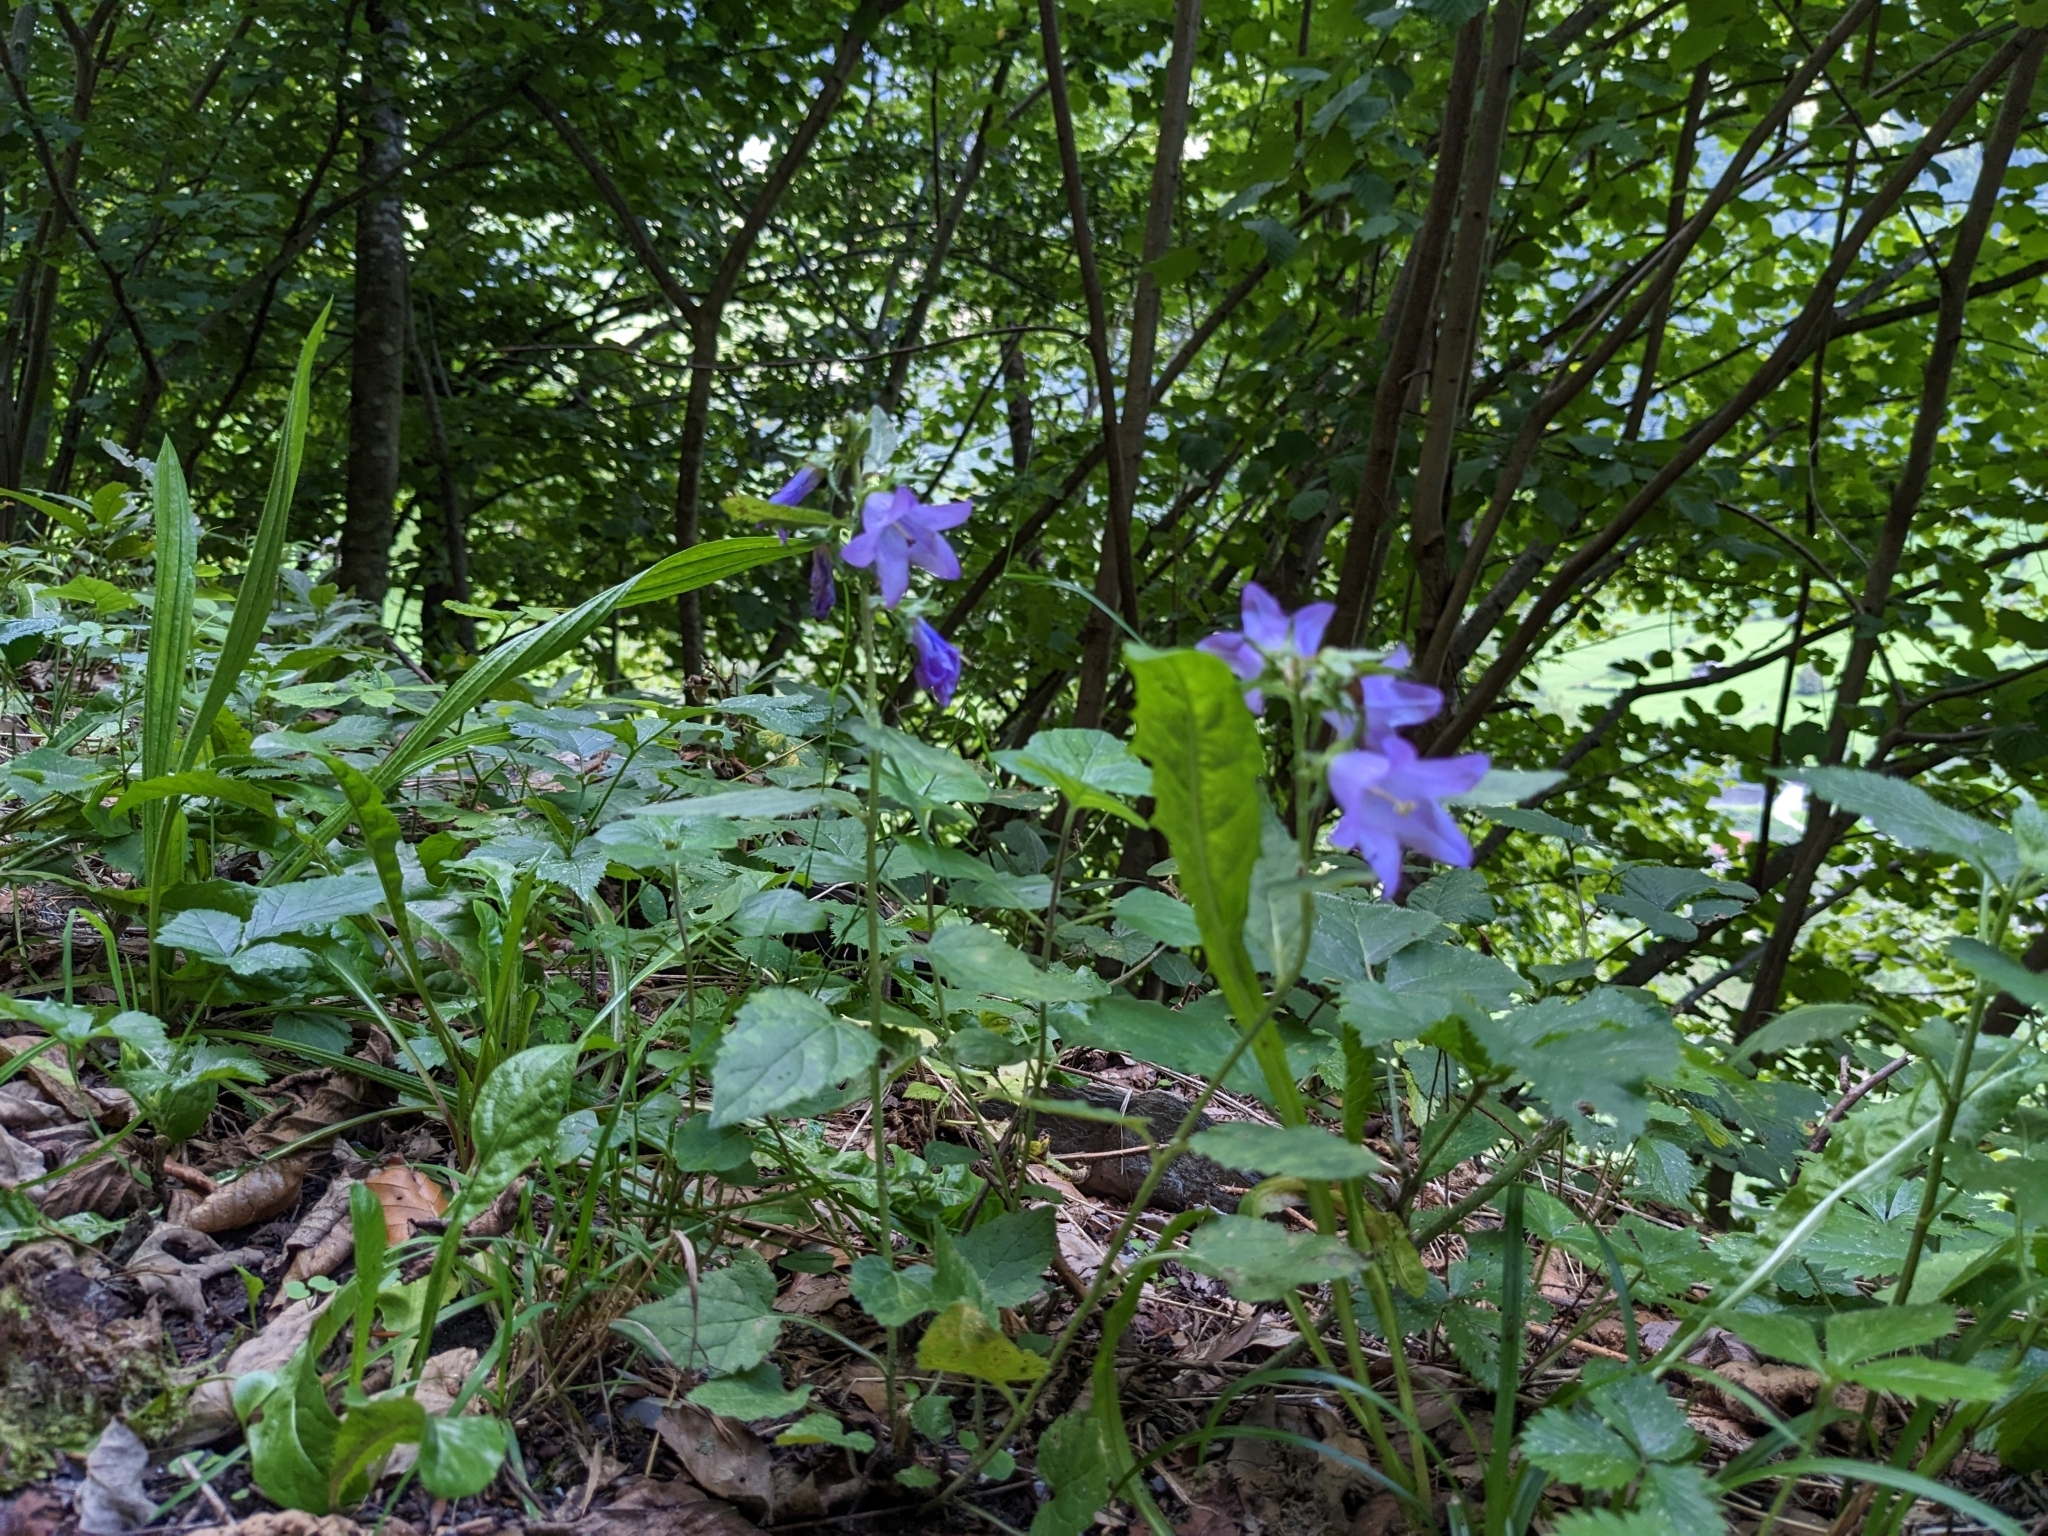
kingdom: Plantae
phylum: Tracheophyta
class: Magnoliopsida
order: Asterales
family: Campanulaceae
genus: Campanula
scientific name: Campanula trachelium
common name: Nettle-leaved bellflower
